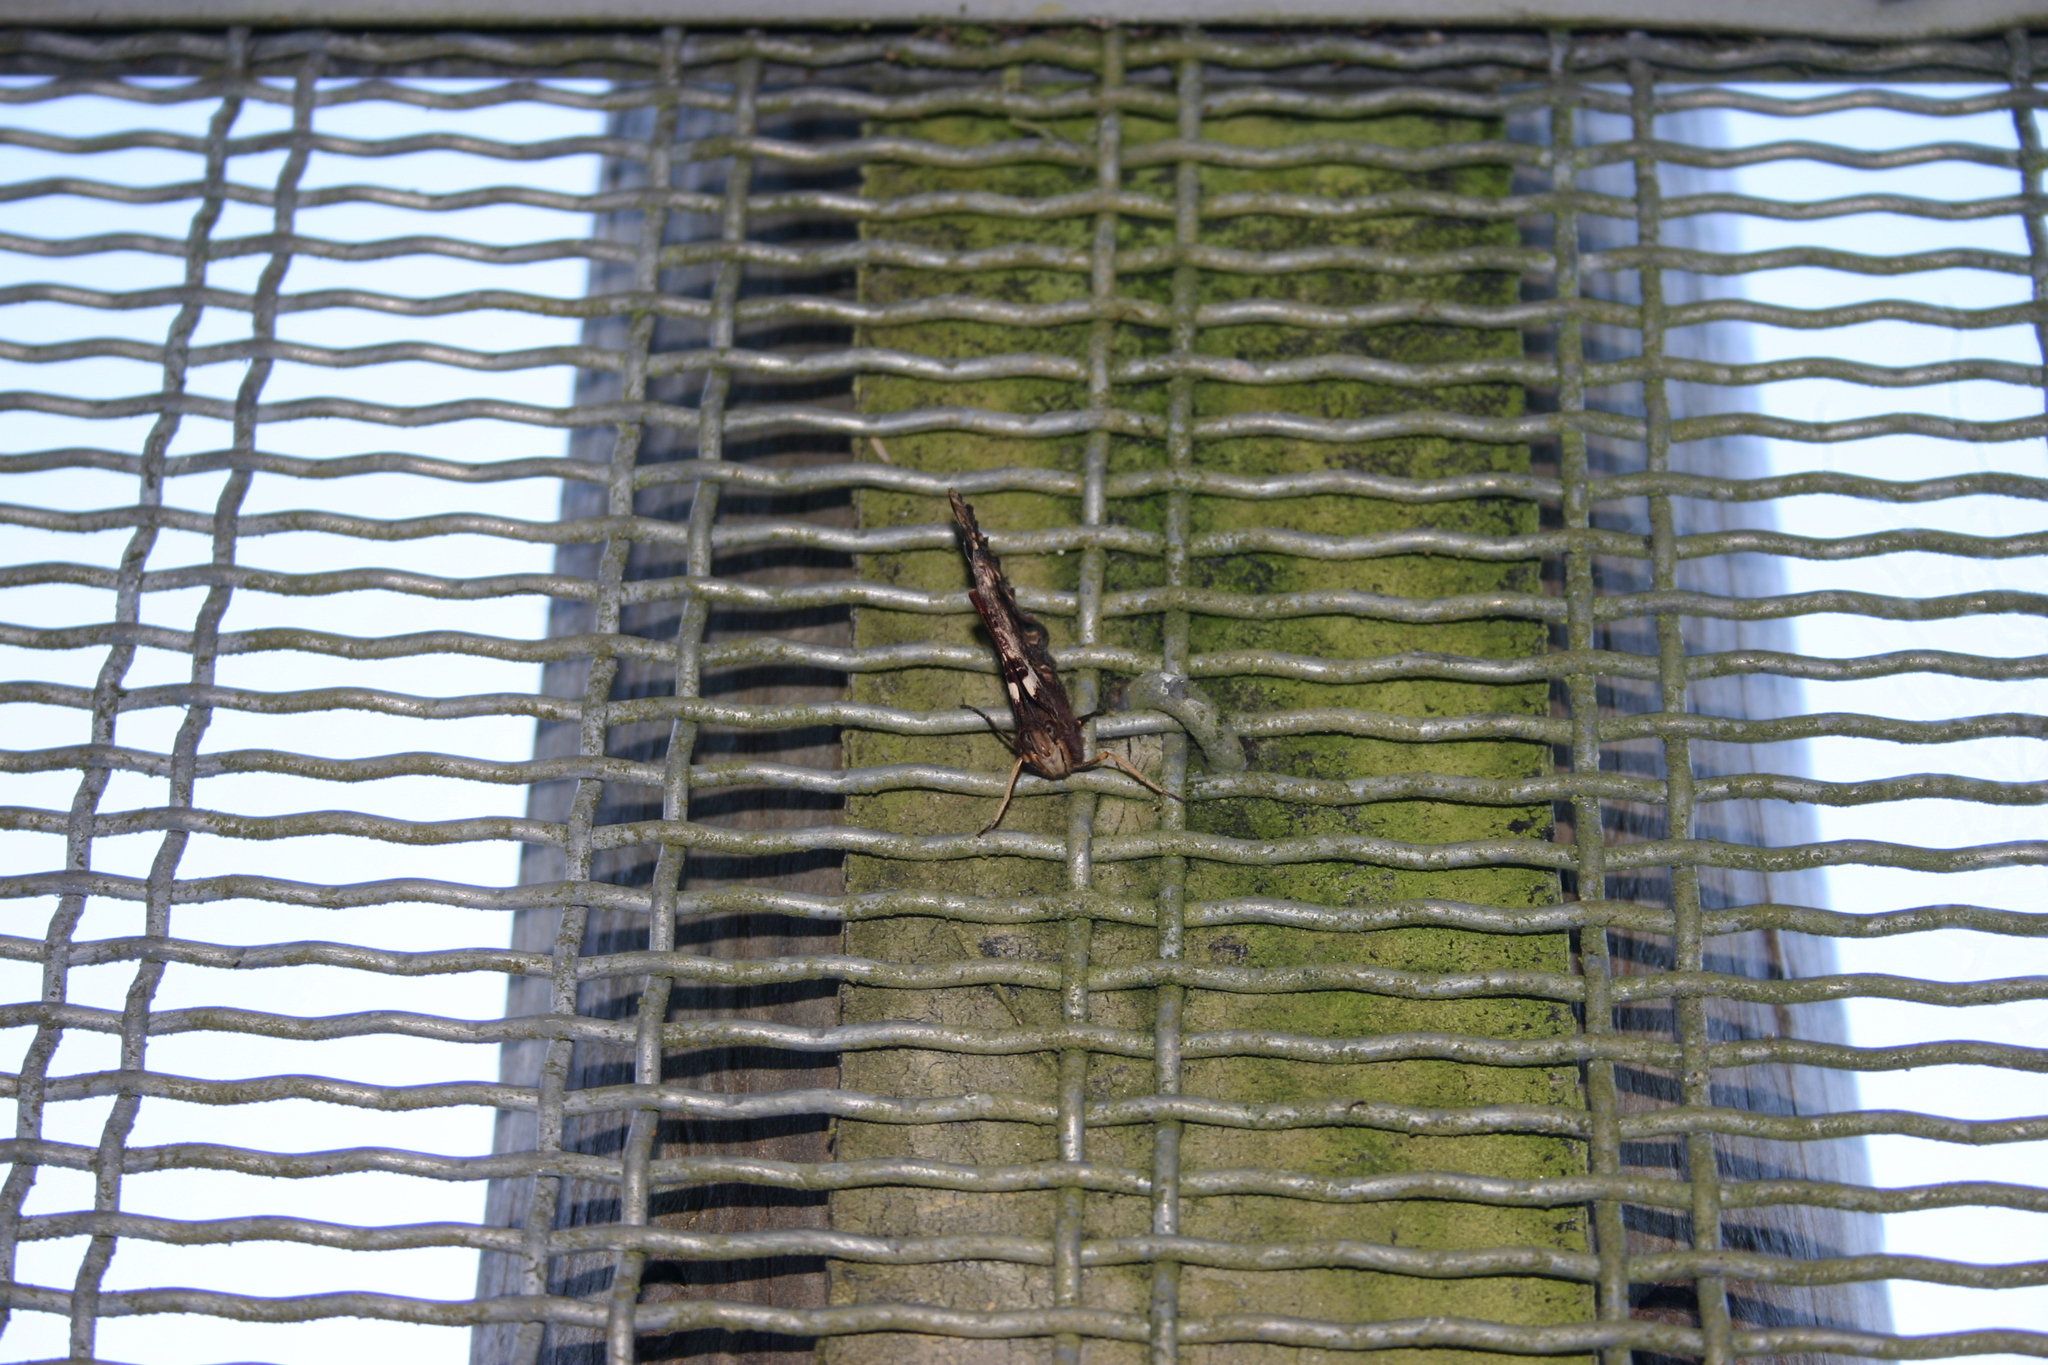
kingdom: Animalia
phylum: Arthropoda
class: Insecta
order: Lepidoptera
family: Nymphalidae
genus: Vanessa
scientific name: Vanessa gonerilla
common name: New zealand red admiral
